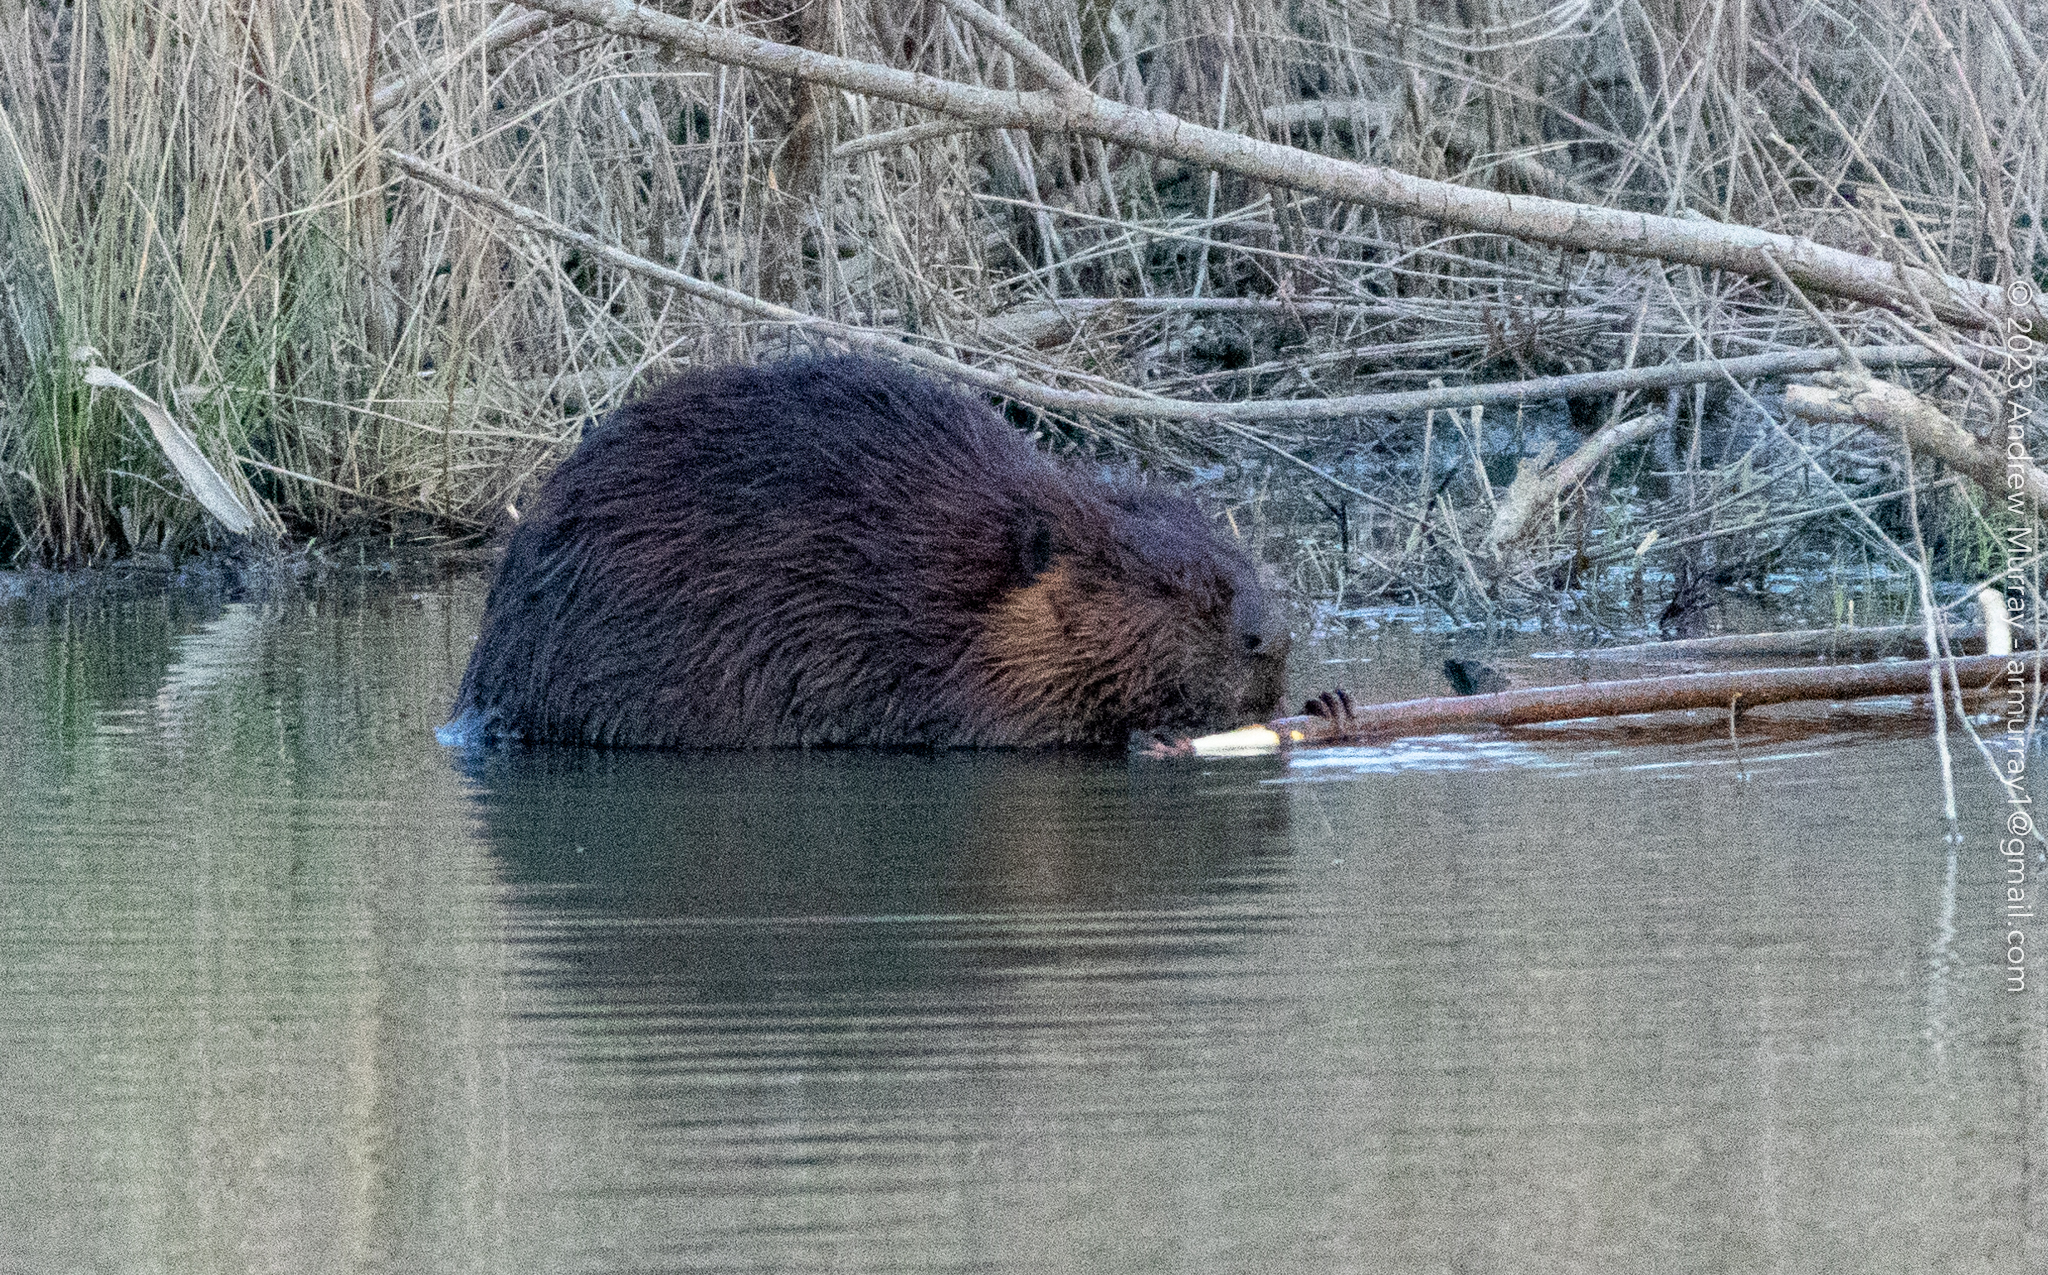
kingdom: Animalia
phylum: Chordata
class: Mammalia
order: Rodentia
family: Castoridae
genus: Castor
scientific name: Castor canadensis
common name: American beaver
